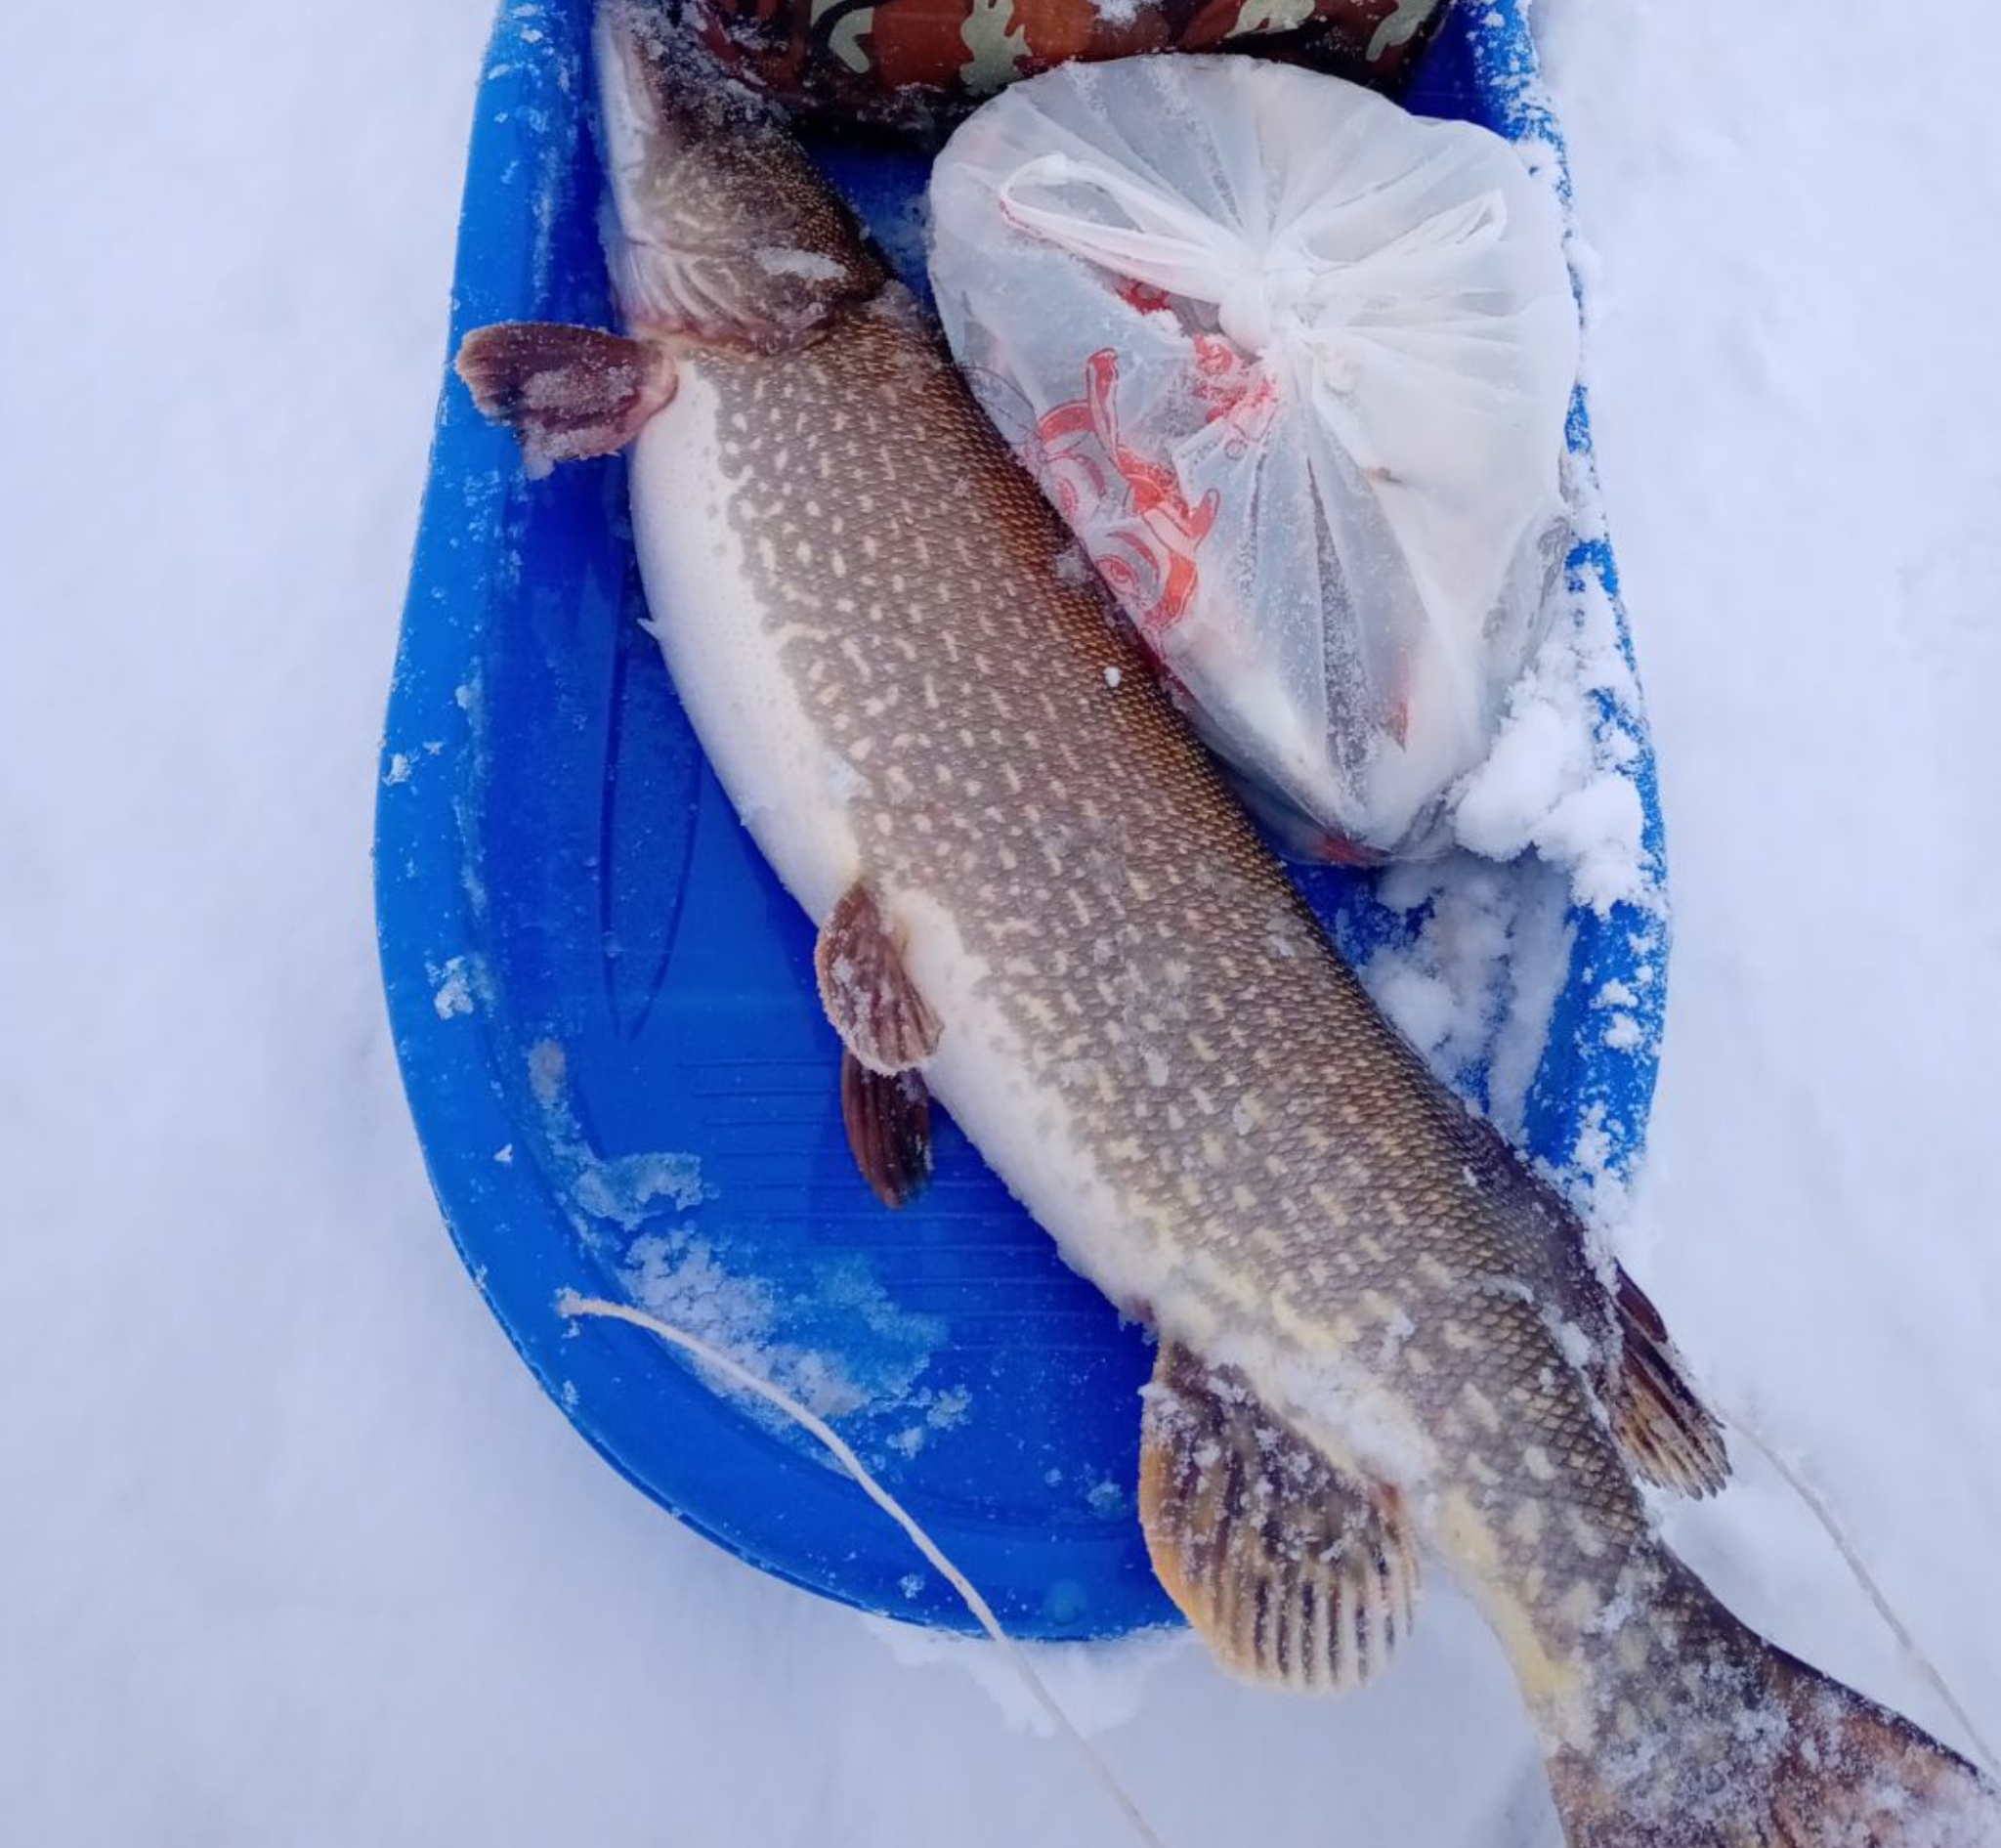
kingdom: Animalia
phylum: Chordata
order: Esociformes
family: Esocidae
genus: Esox
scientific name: Esox lucius
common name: Northern pike
